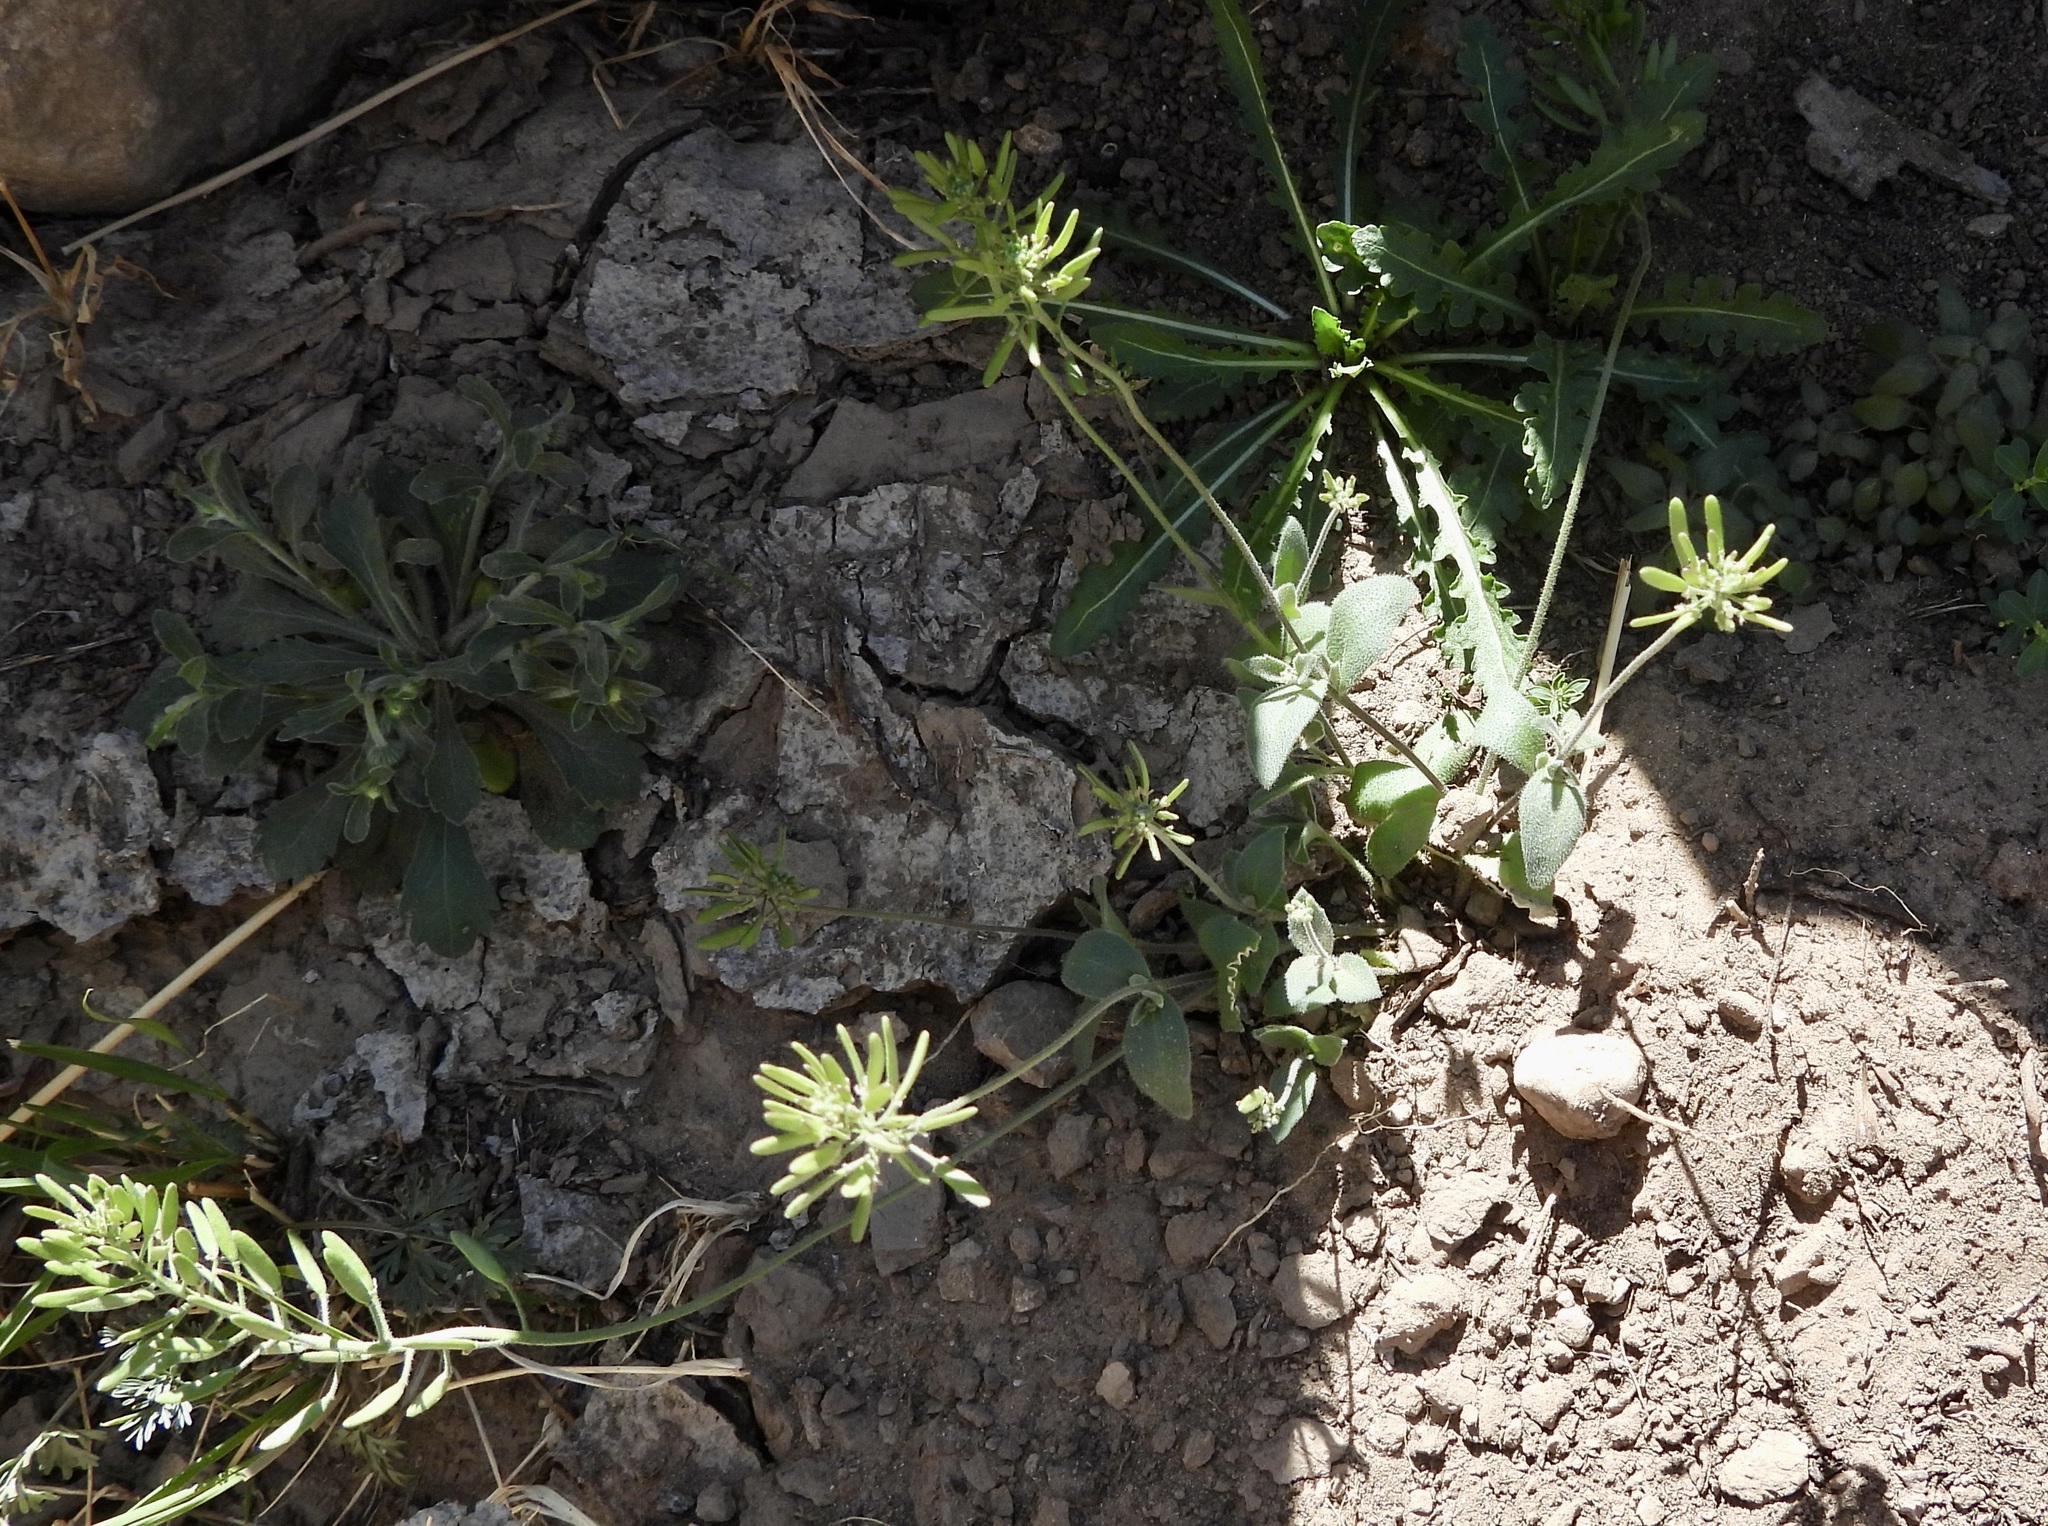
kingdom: Plantae
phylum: Tracheophyta
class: Magnoliopsida
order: Brassicales
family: Brassicaceae
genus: Tomostima
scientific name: Tomostima cuneifolia
